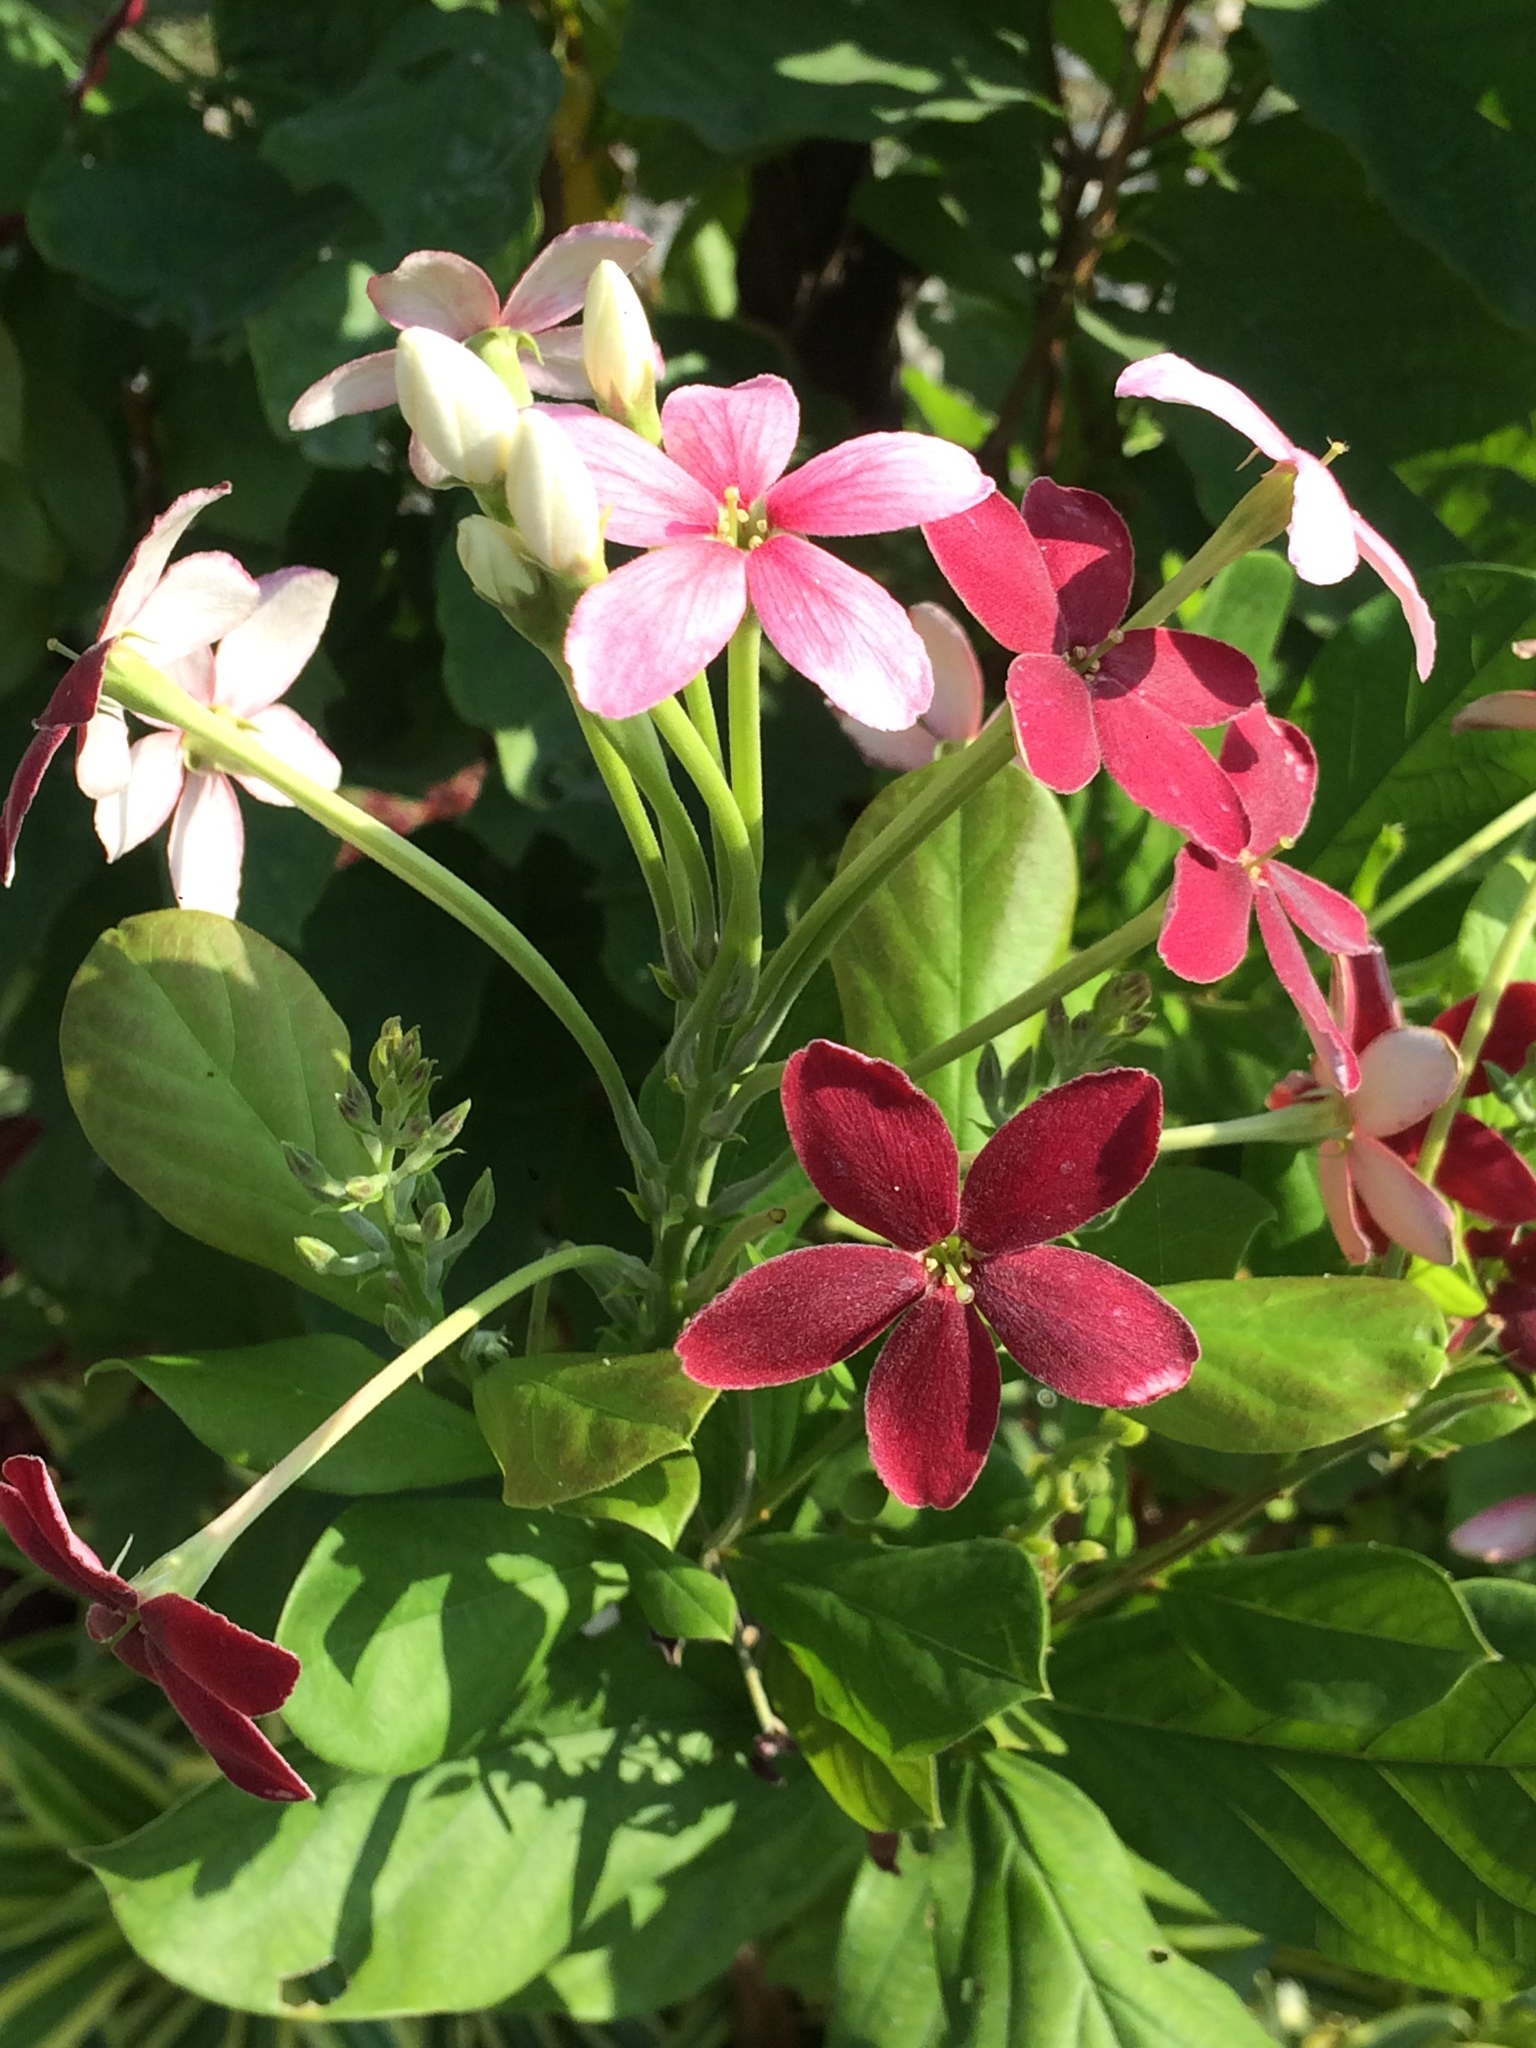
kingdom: Plantae
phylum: Tracheophyta
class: Magnoliopsida
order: Myrtales
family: Combretaceae
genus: Combretum
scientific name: Combretum indicum
